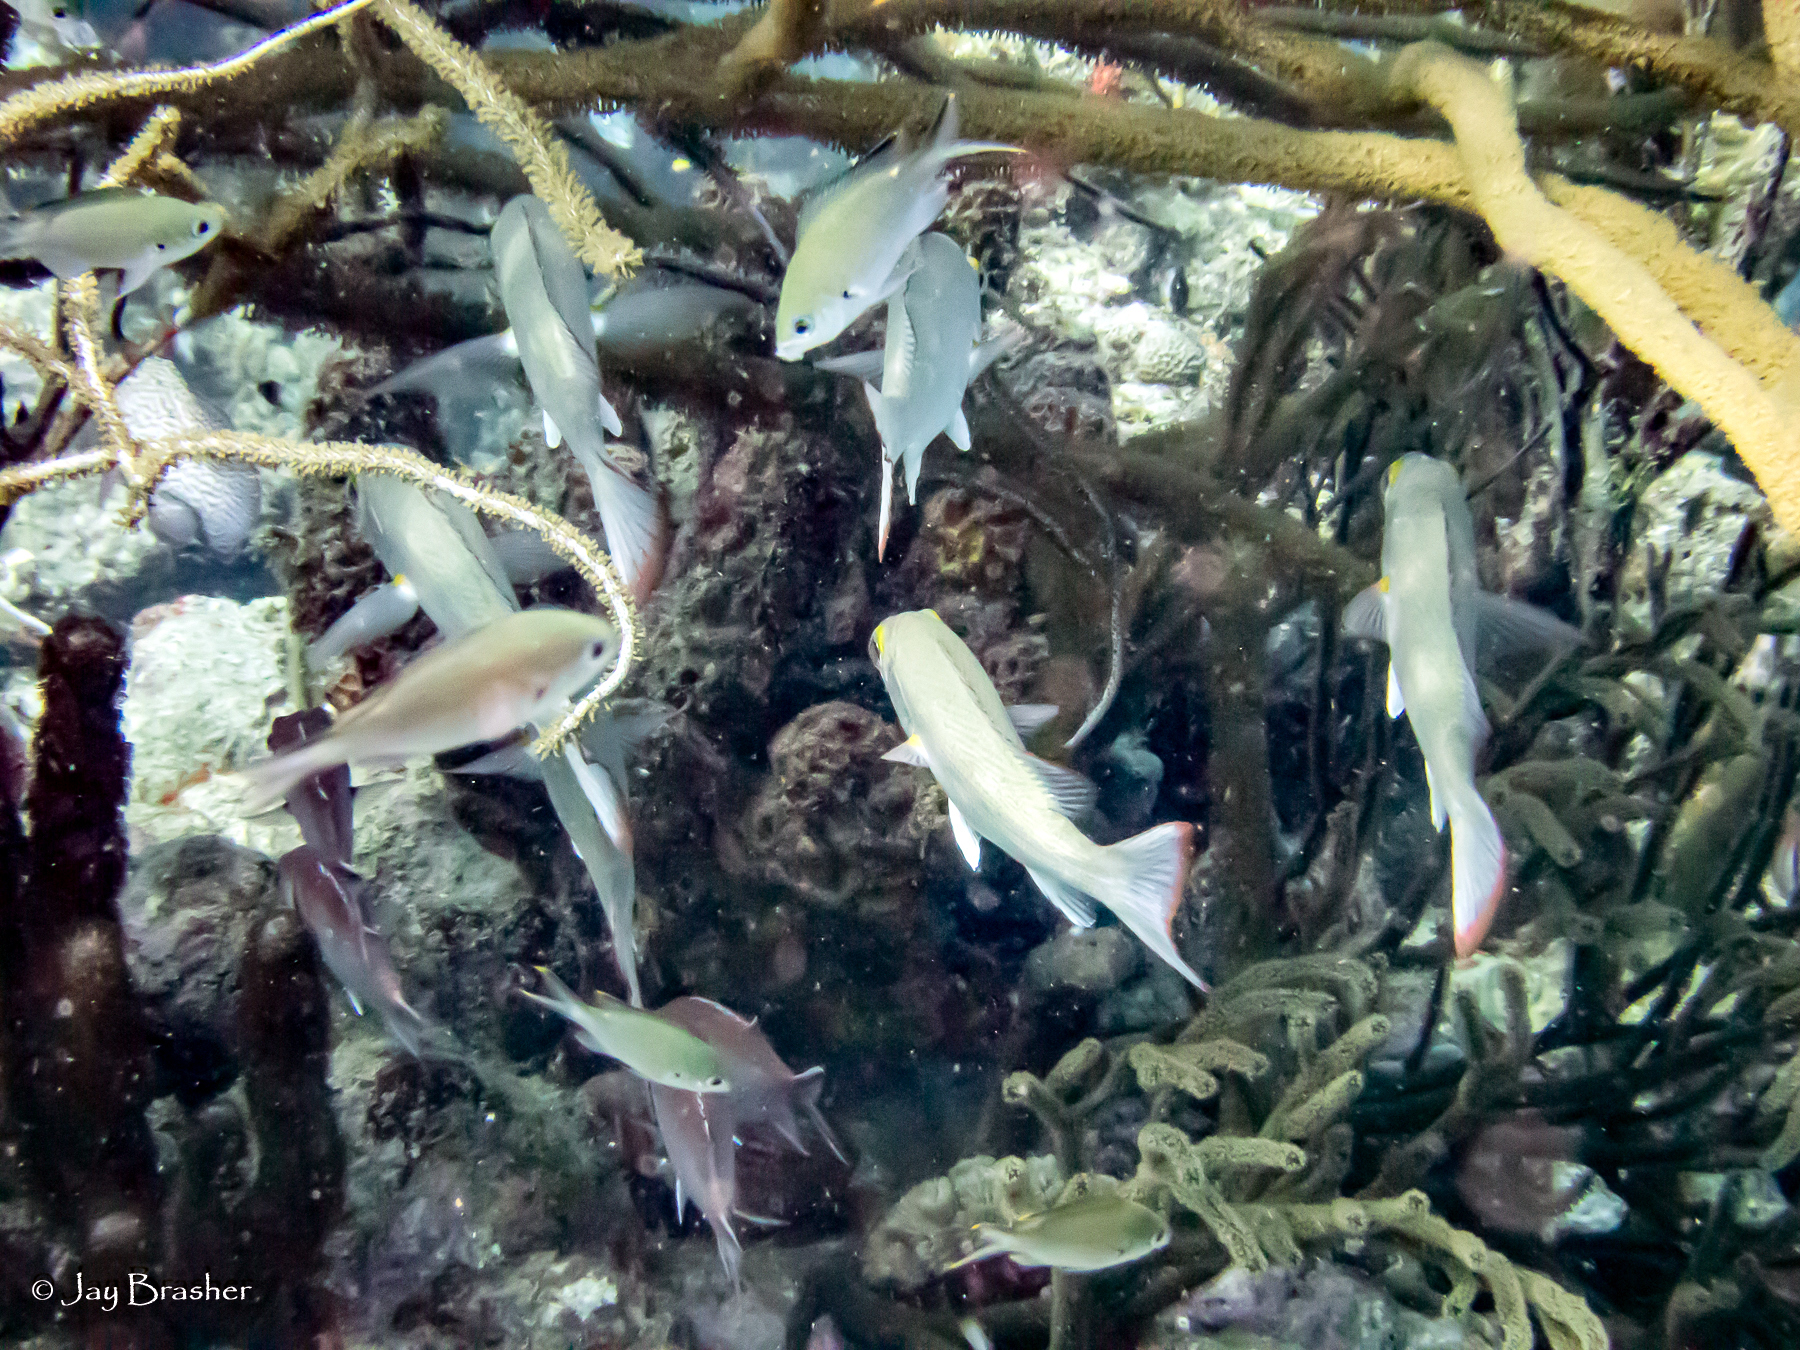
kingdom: Animalia
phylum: Chordata
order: Perciformes
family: Pomacentridae
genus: Chromis
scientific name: Chromis multilineata
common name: Brown chromis
